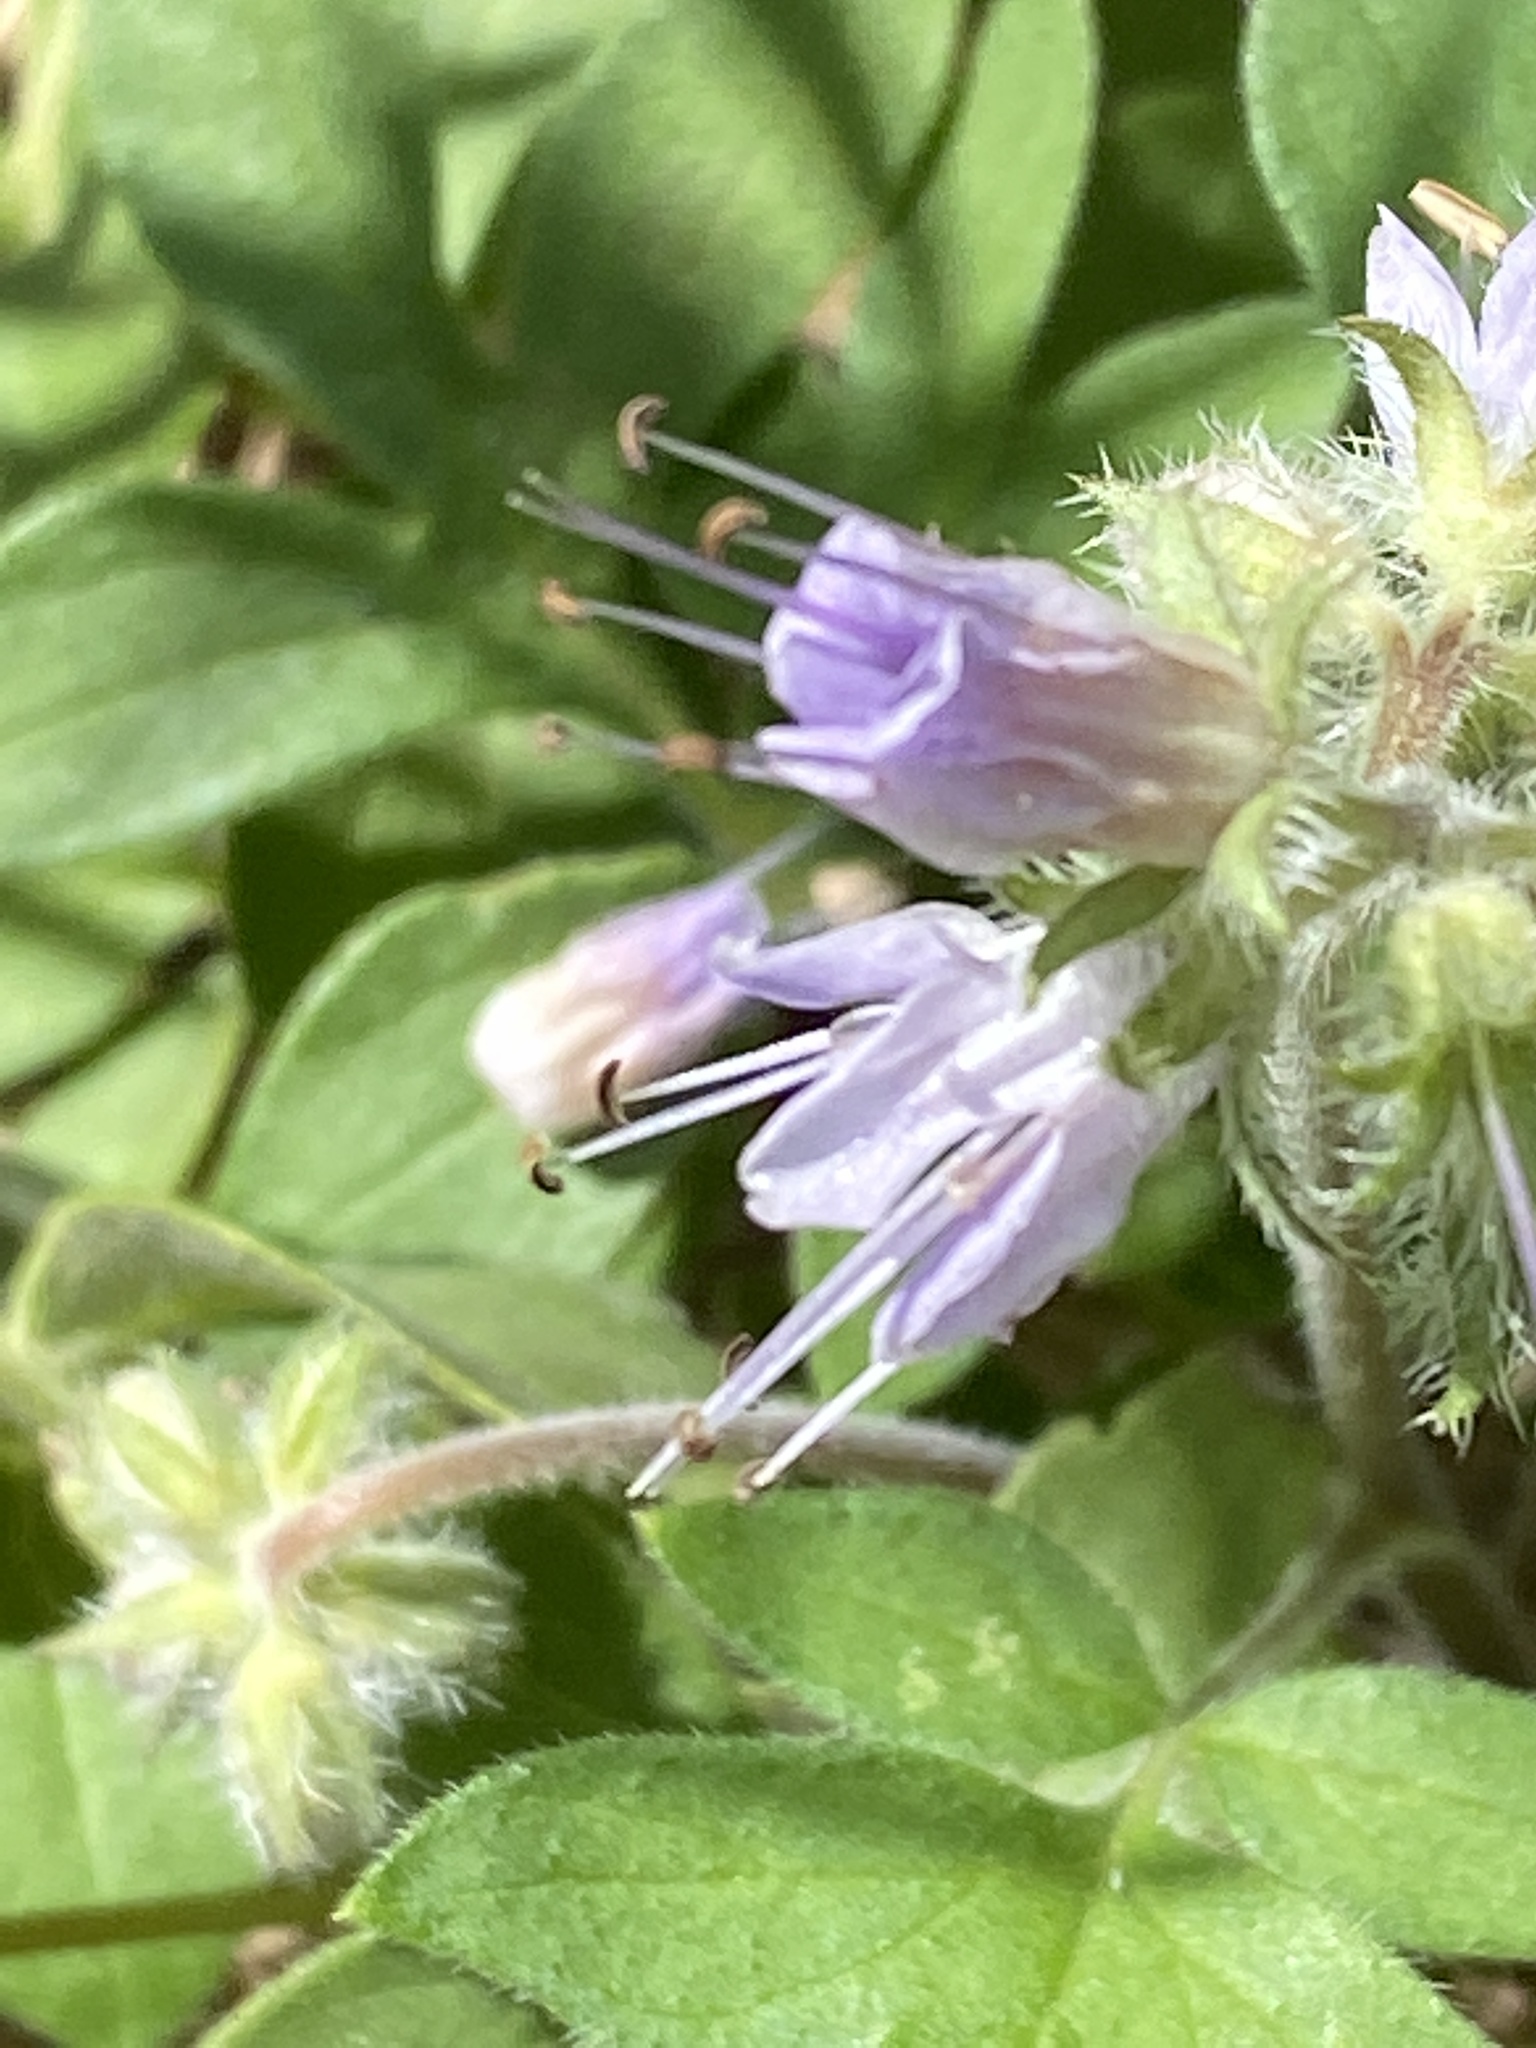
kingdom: Plantae
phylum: Tracheophyta
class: Magnoliopsida
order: Boraginales
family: Hydrophyllaceae
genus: Hydrophyllum
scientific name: Hydrophyllum occidentale
